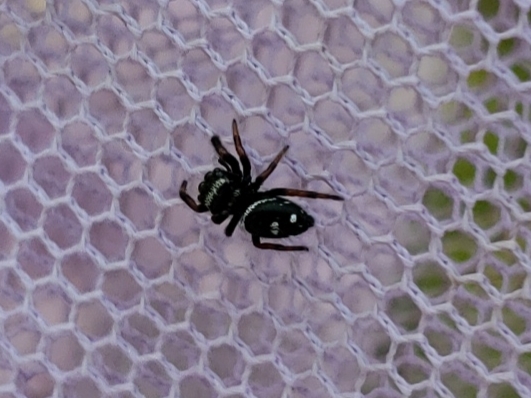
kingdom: Animalia
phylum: Arthropoda
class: Arachnida
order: Araneae
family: Salticidae
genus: Phidippus
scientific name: Phidippus regius
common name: Regal jumper
